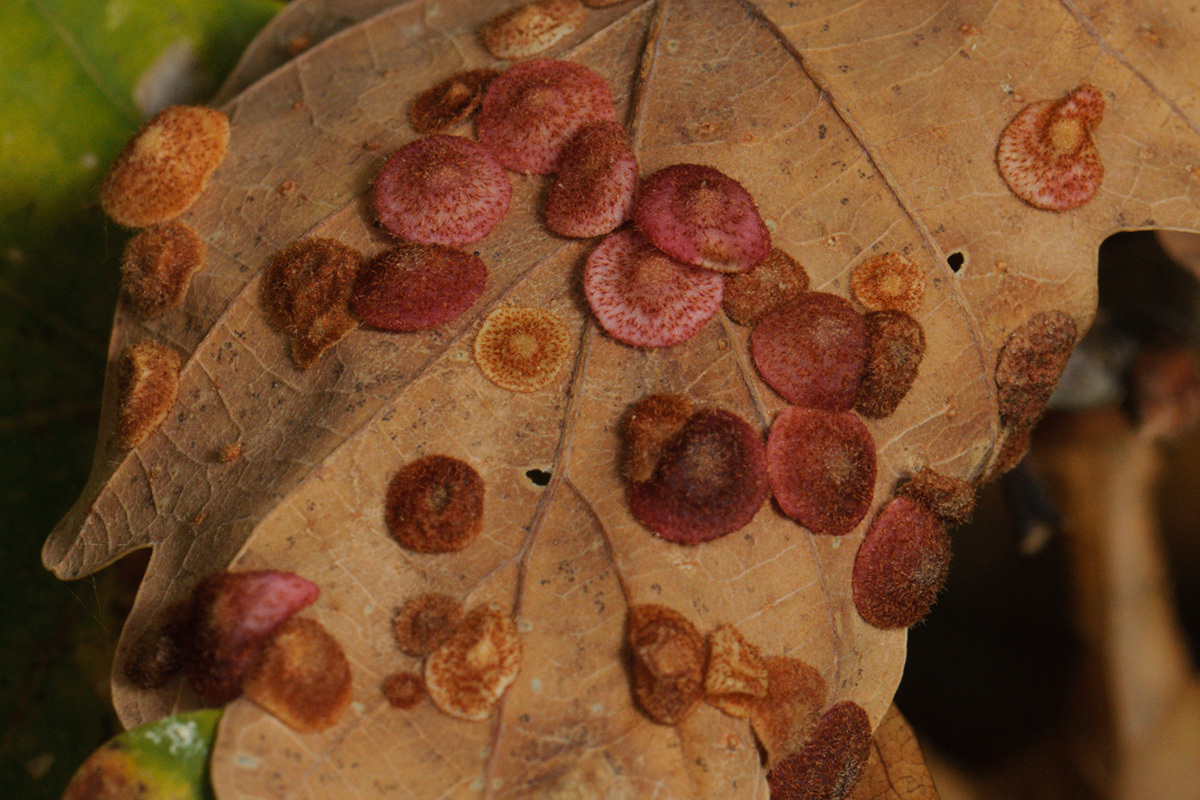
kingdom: Animalia
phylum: Arthropoda
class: Insecta
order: Hymenoptera
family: Cynipidae
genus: Neuroterus
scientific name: Neuroterus quercusbaccarum
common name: Common spangle gall
